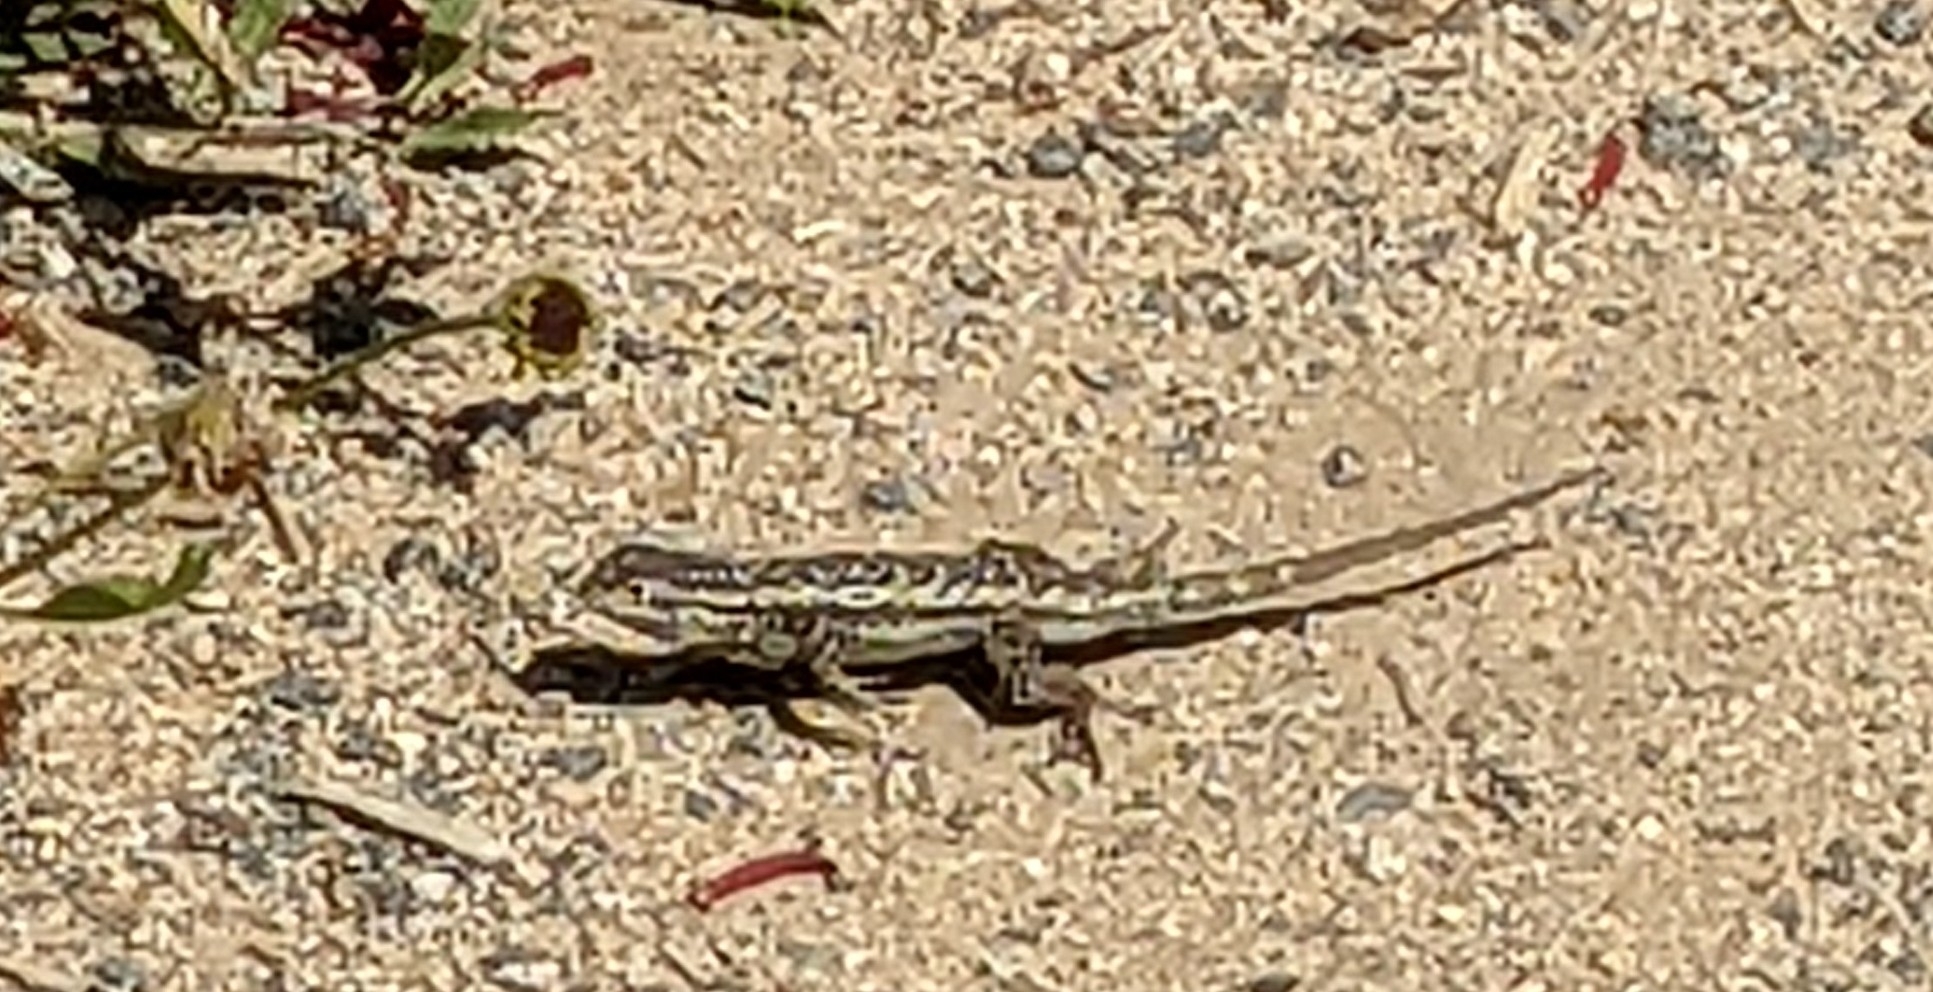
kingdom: Animalia
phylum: Chordata
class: Squamata
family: Phrynosomatidae
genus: Sceloporus
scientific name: Sceloporus occidentalis
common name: Western fence lizard
